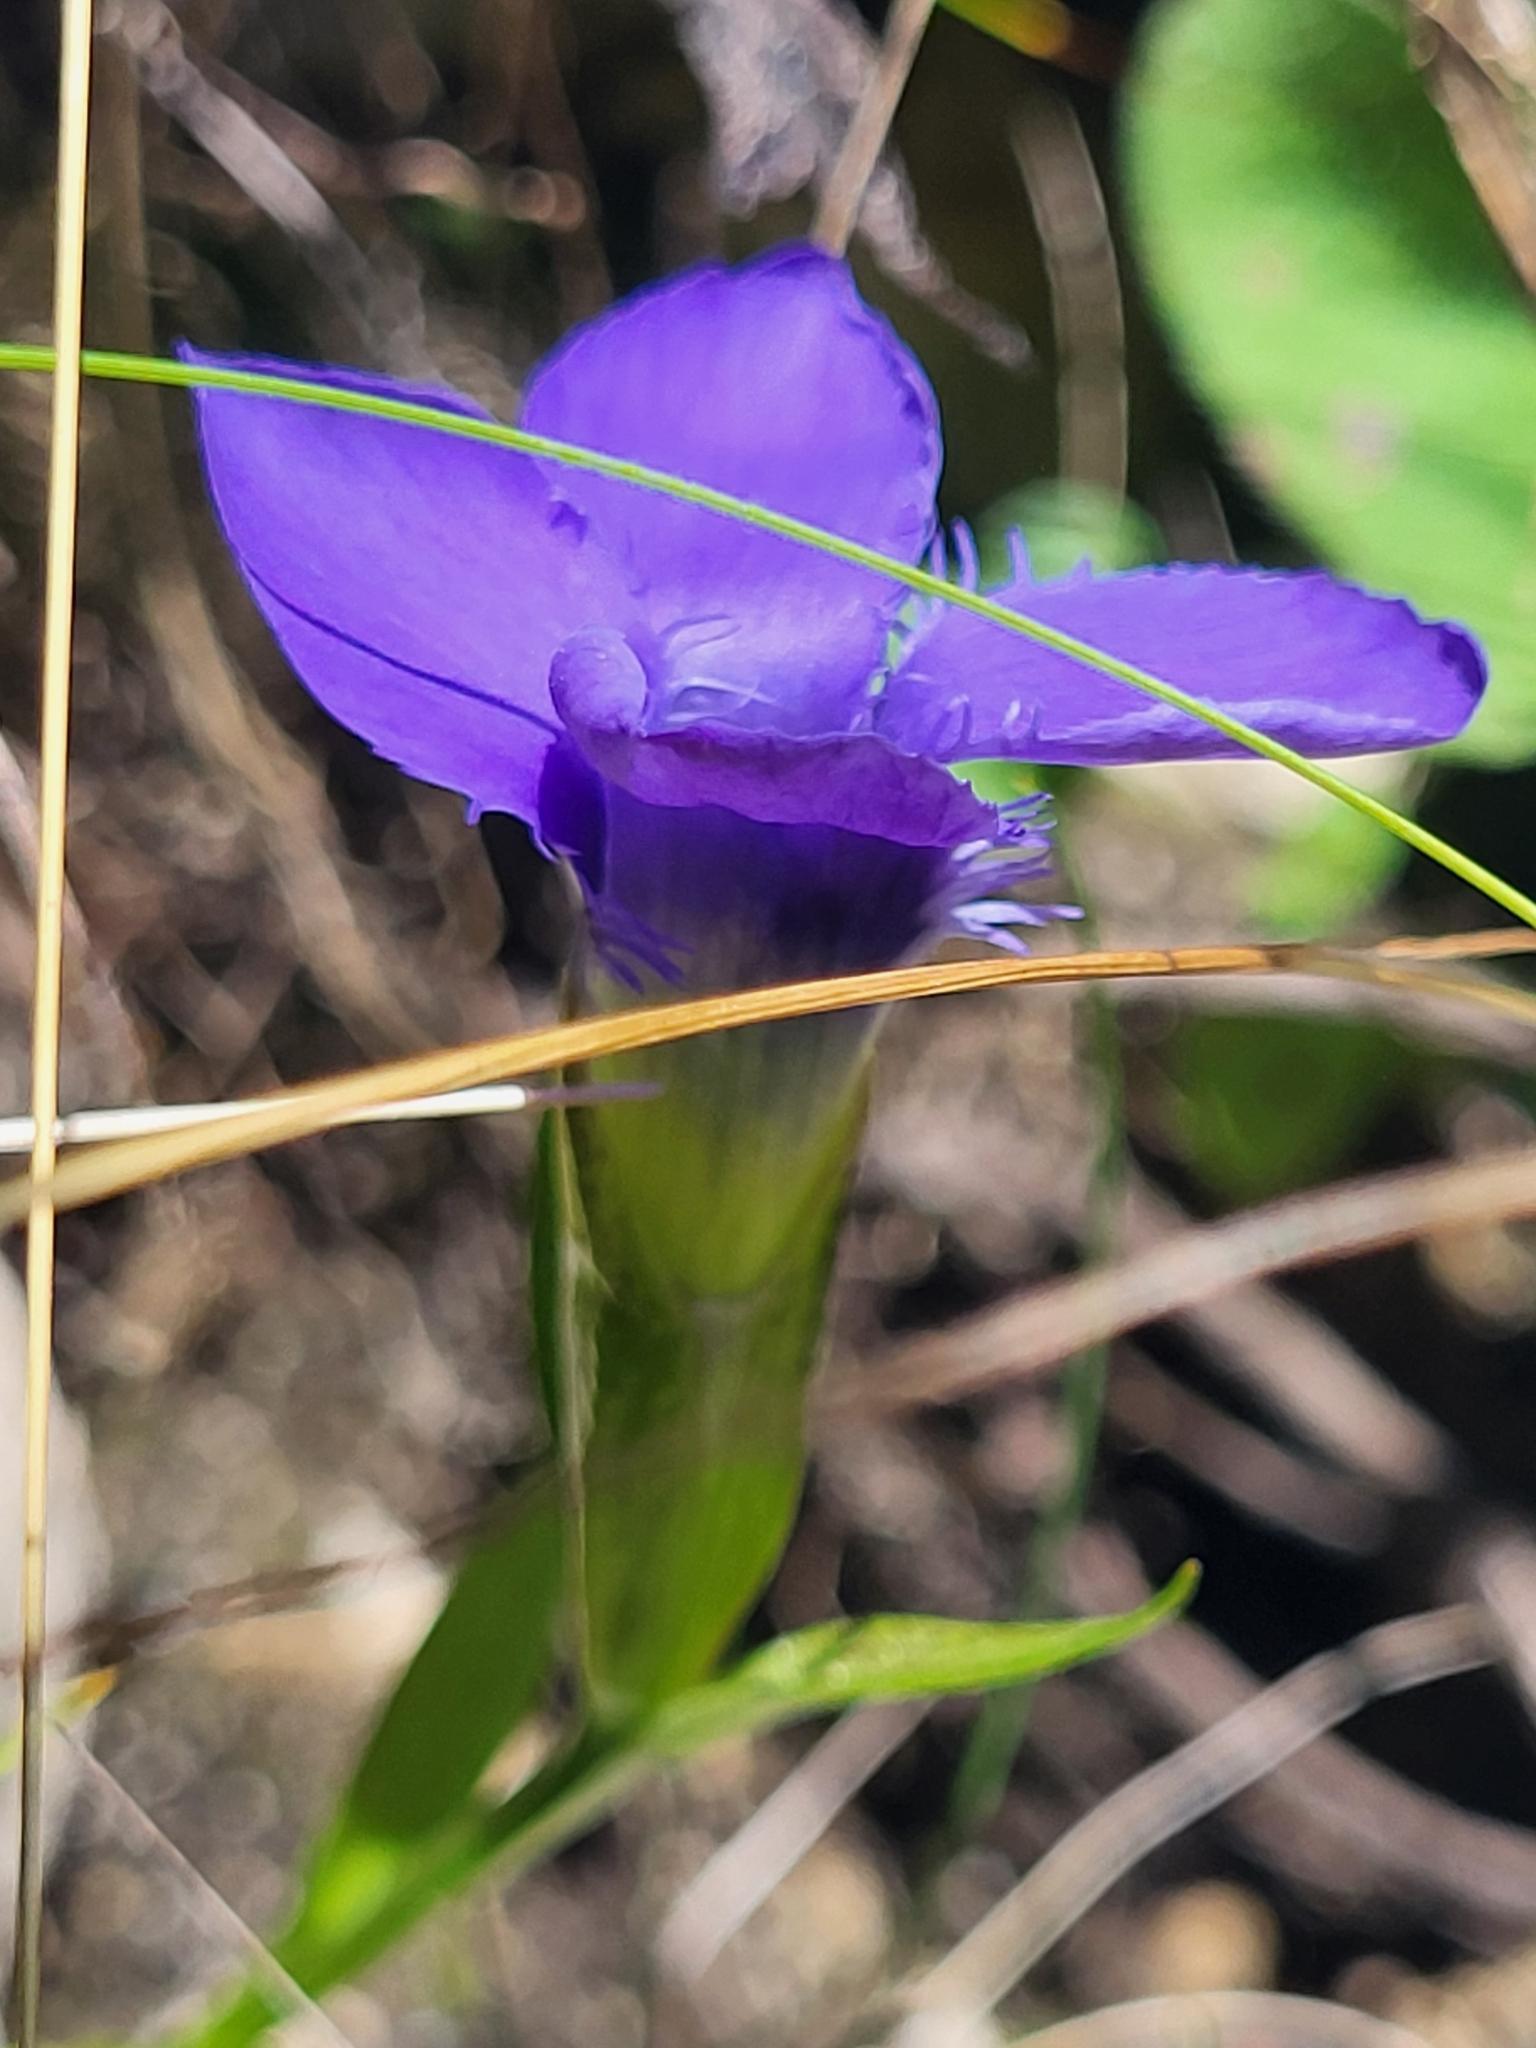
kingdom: Plantae
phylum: Tracheophyta
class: Magnoliopsida
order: Gentianales
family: Gentianaceae
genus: Gentianopsis
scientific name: Gentianopsis ciliata
